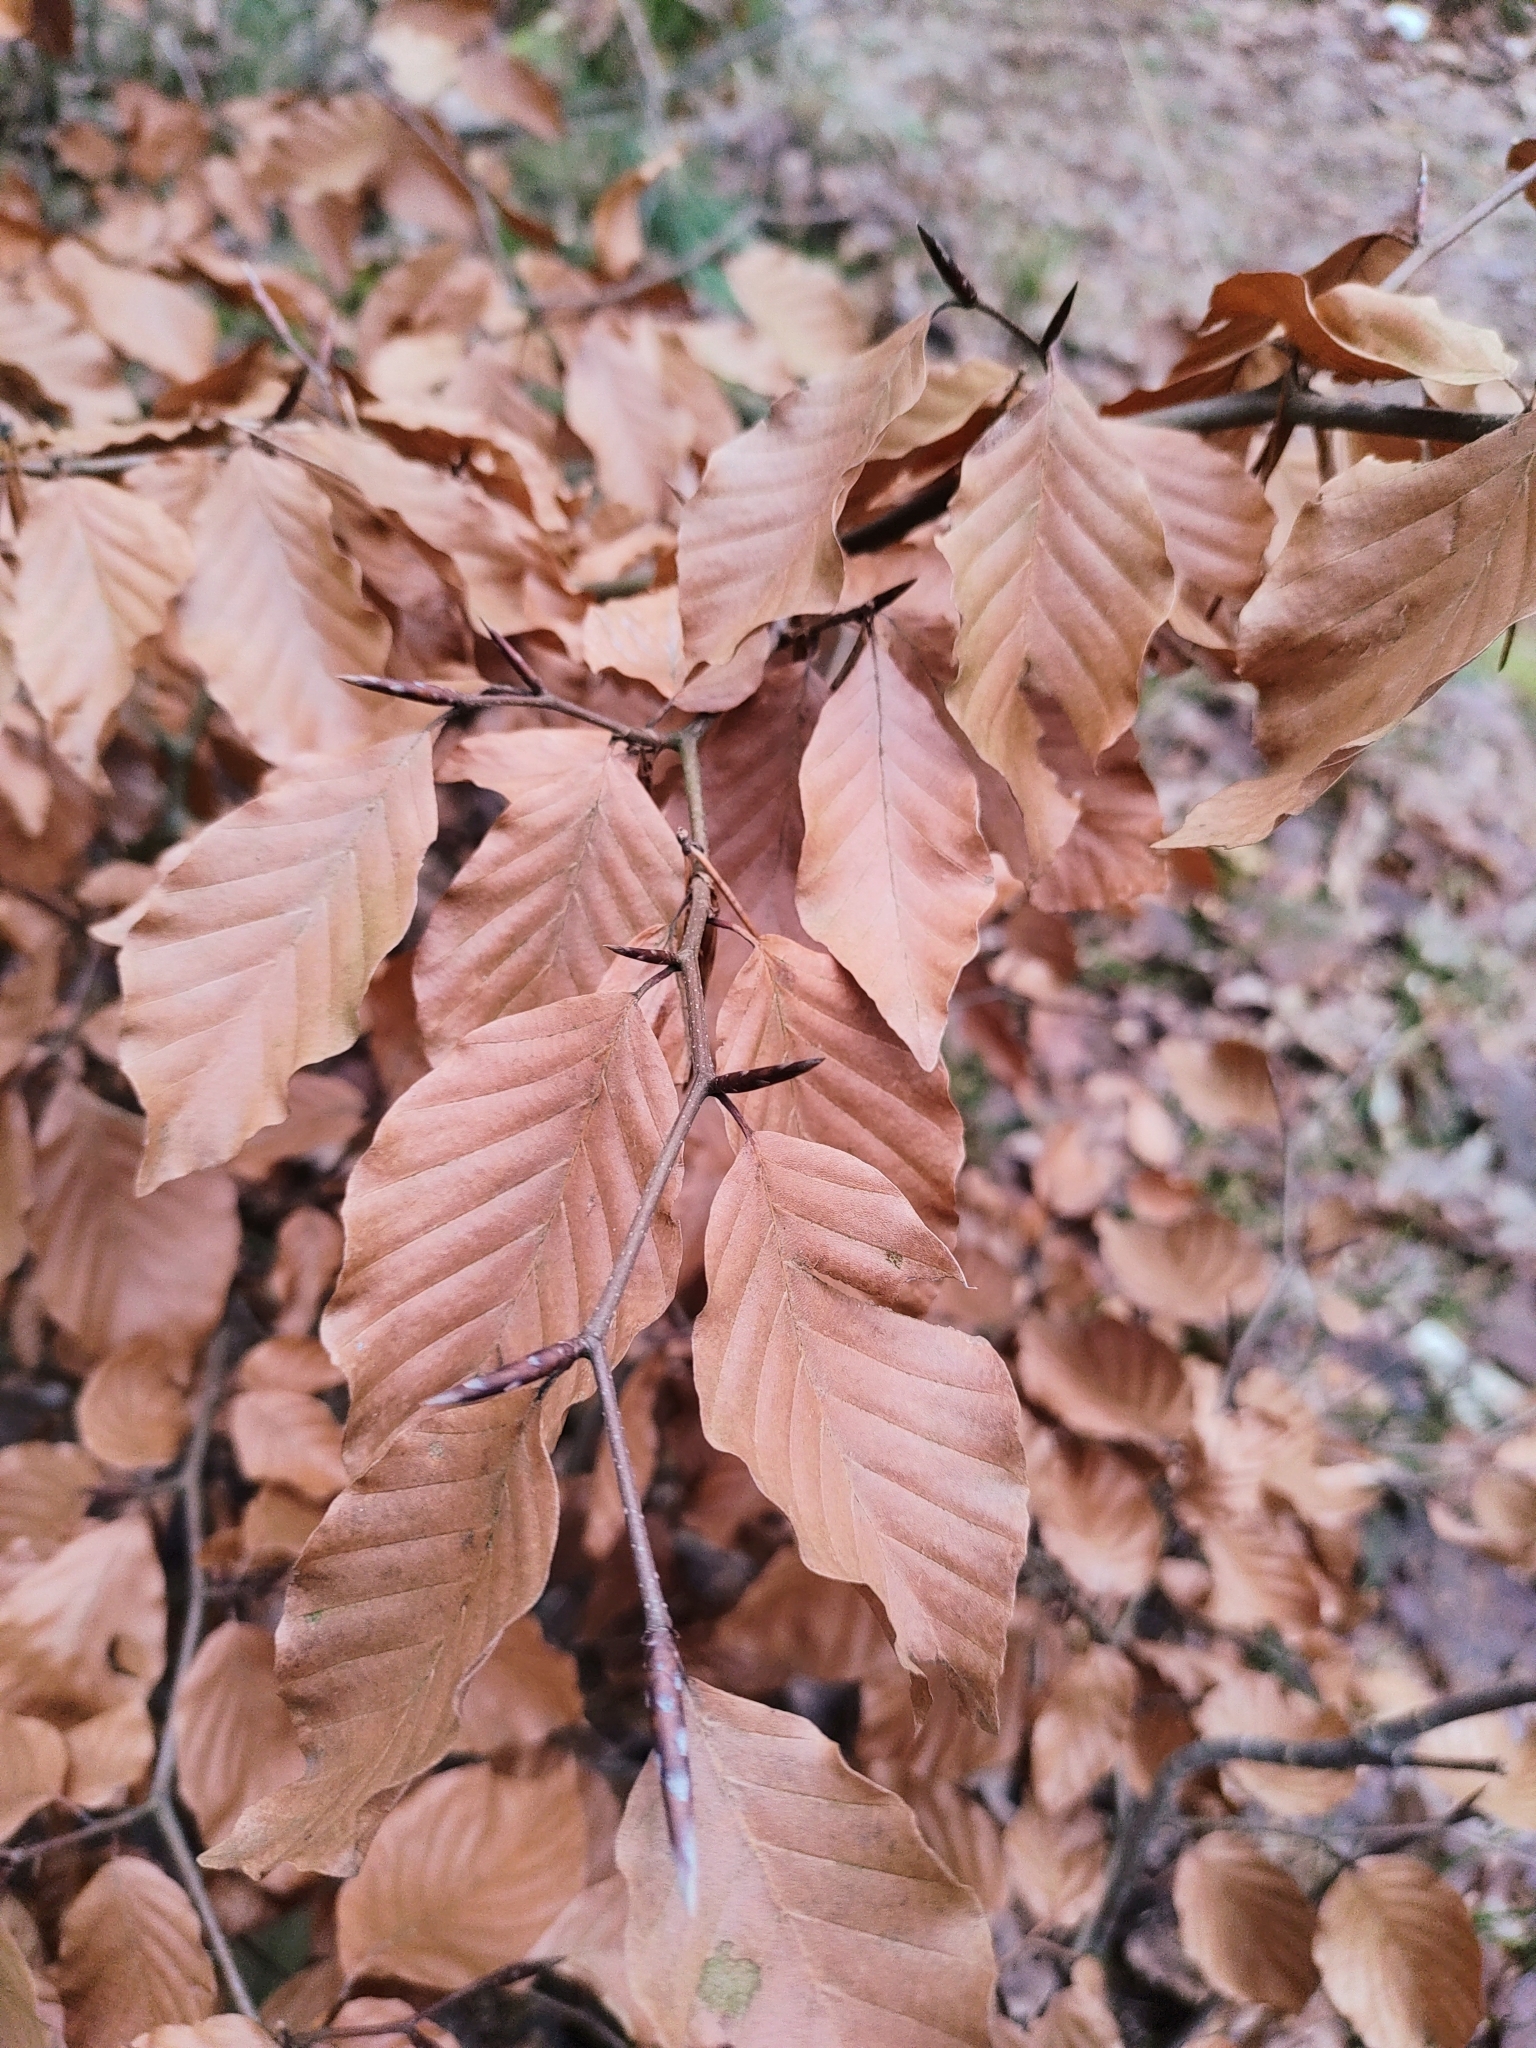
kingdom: Plantae
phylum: Tracheophyta
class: Magnoliopsida
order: Fagales
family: Fagaceae
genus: Fagus
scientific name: Fagus sylvatica
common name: Beech
